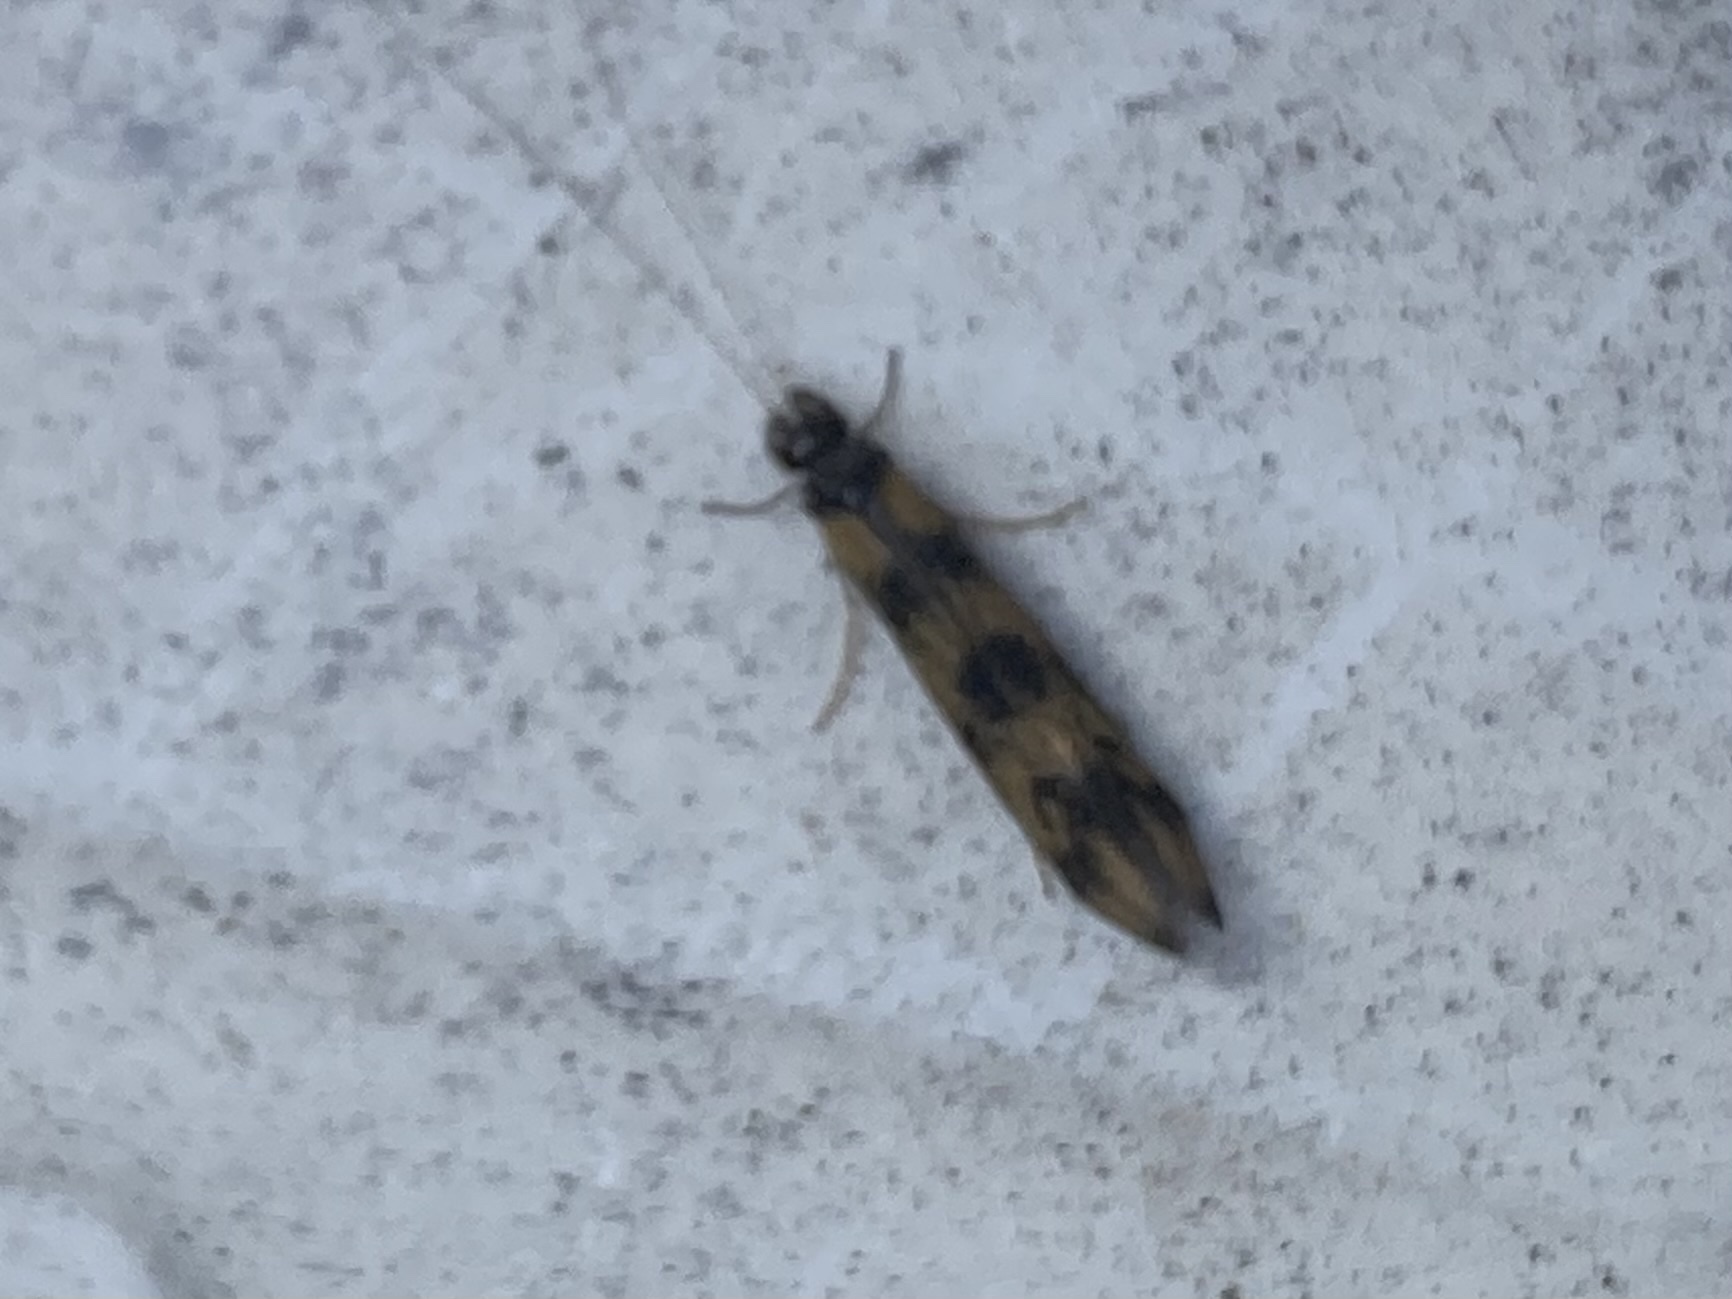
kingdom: Animalia
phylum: Arthropoda
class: Insecta
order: Trichoptera
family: Leptoceridae
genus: Mystacides
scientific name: Mystacides longicornis
